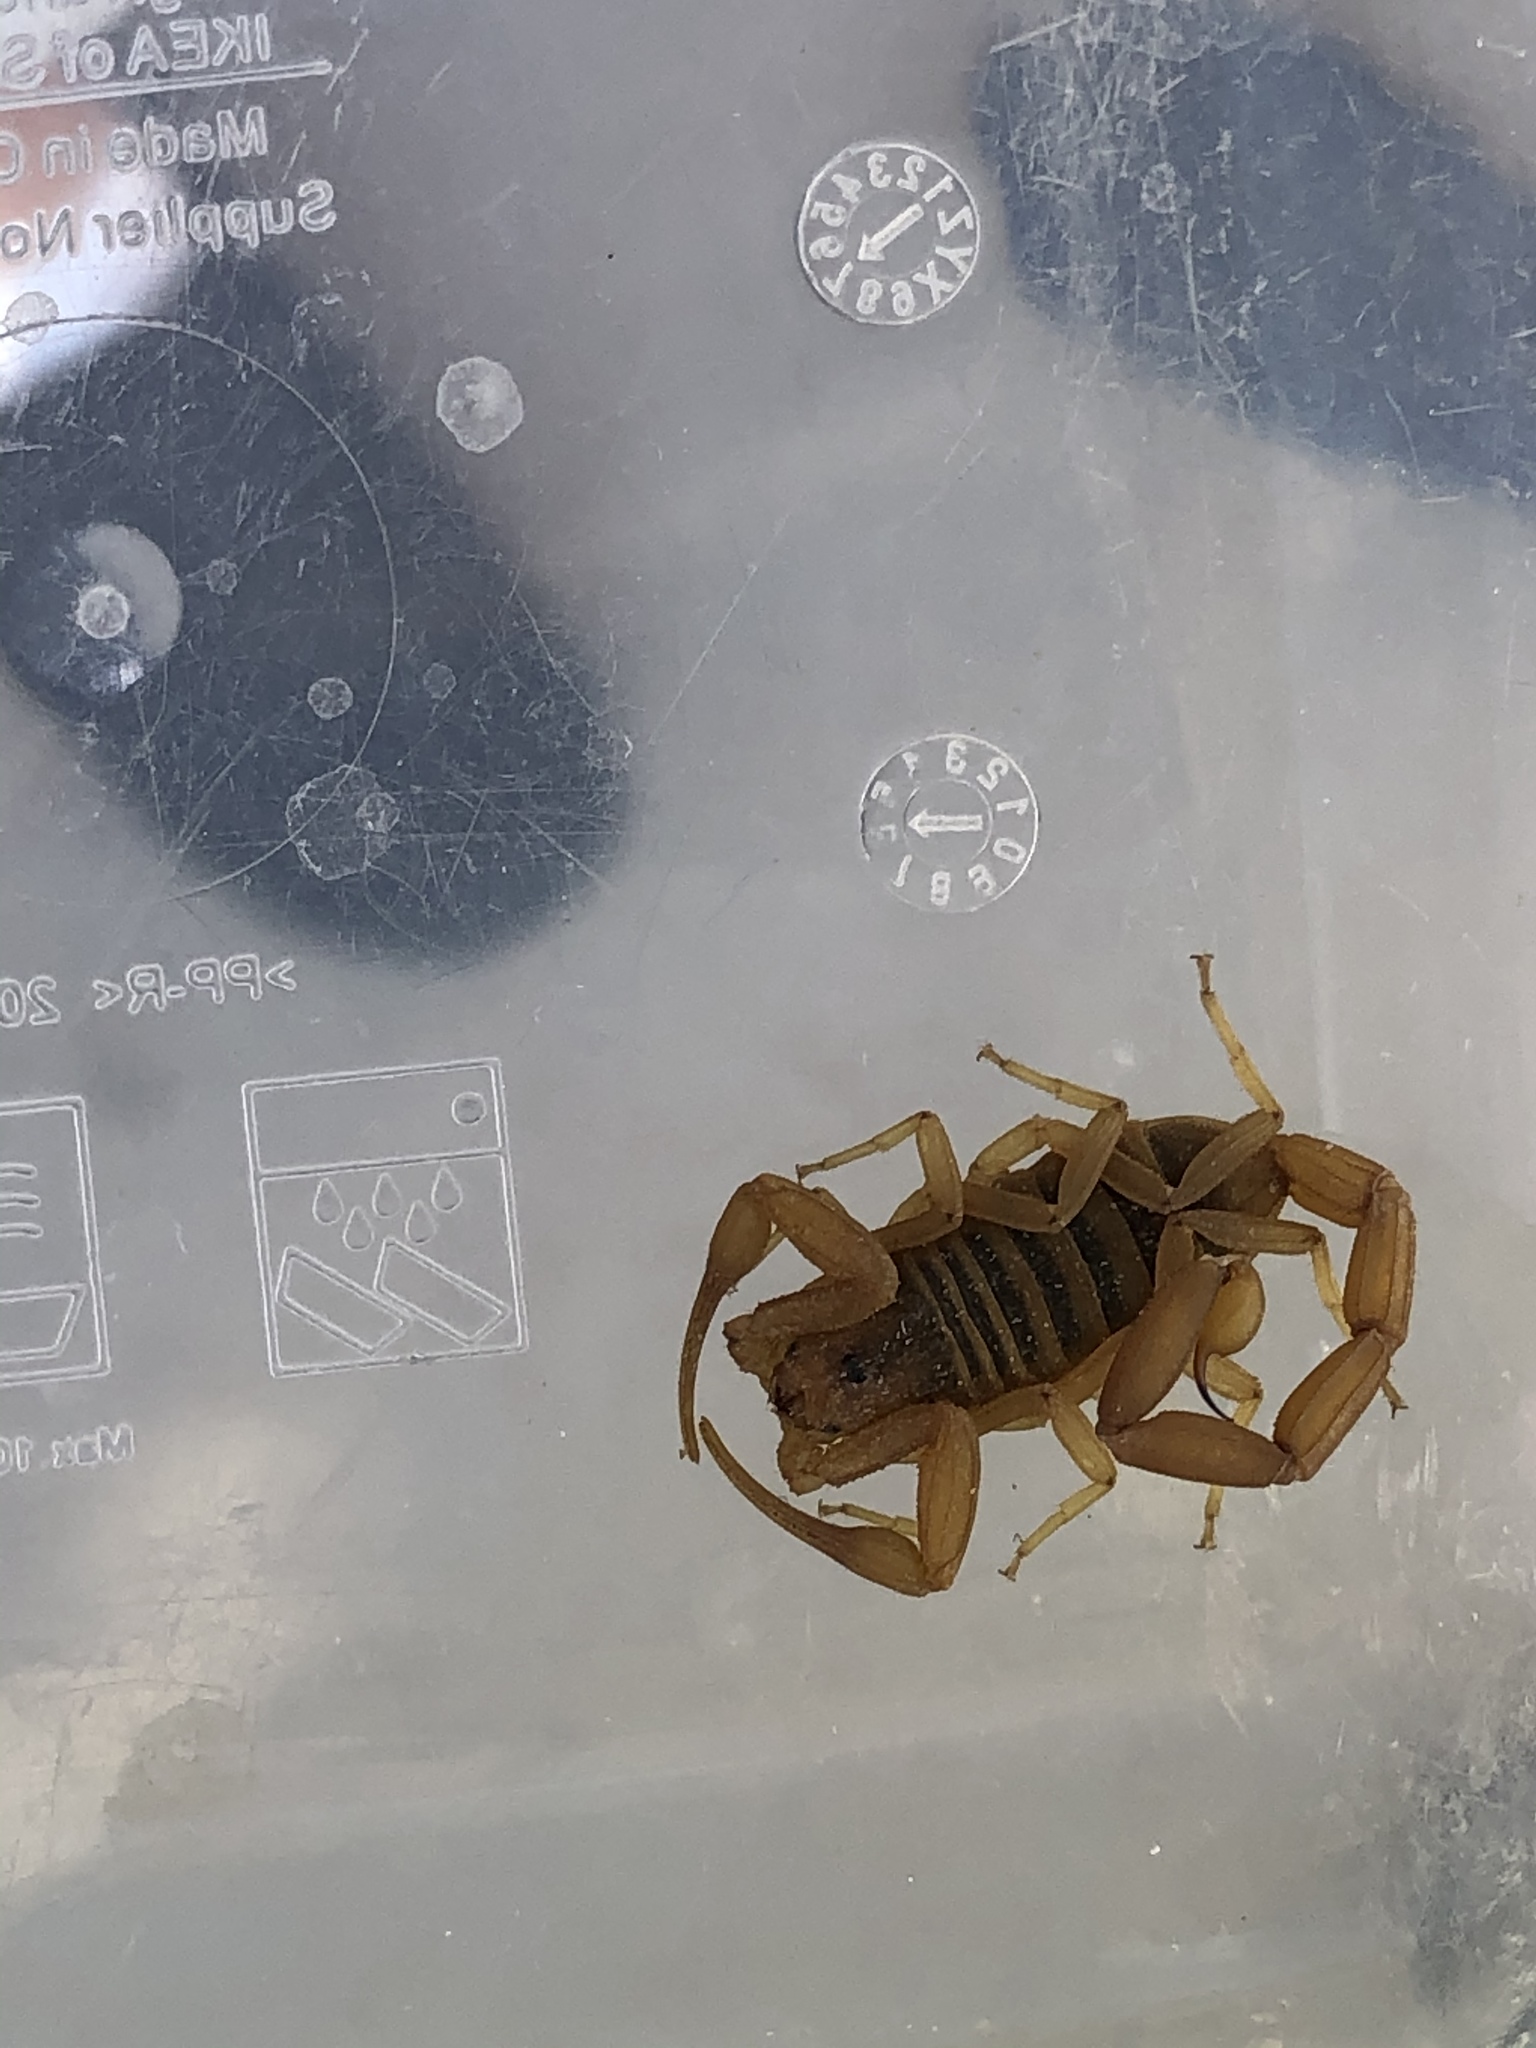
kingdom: Animalia
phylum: Arthropoda
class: Arachnida
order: Scorpiones
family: Buthidae
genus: Centruroides
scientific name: Centruroides sculpturatus
